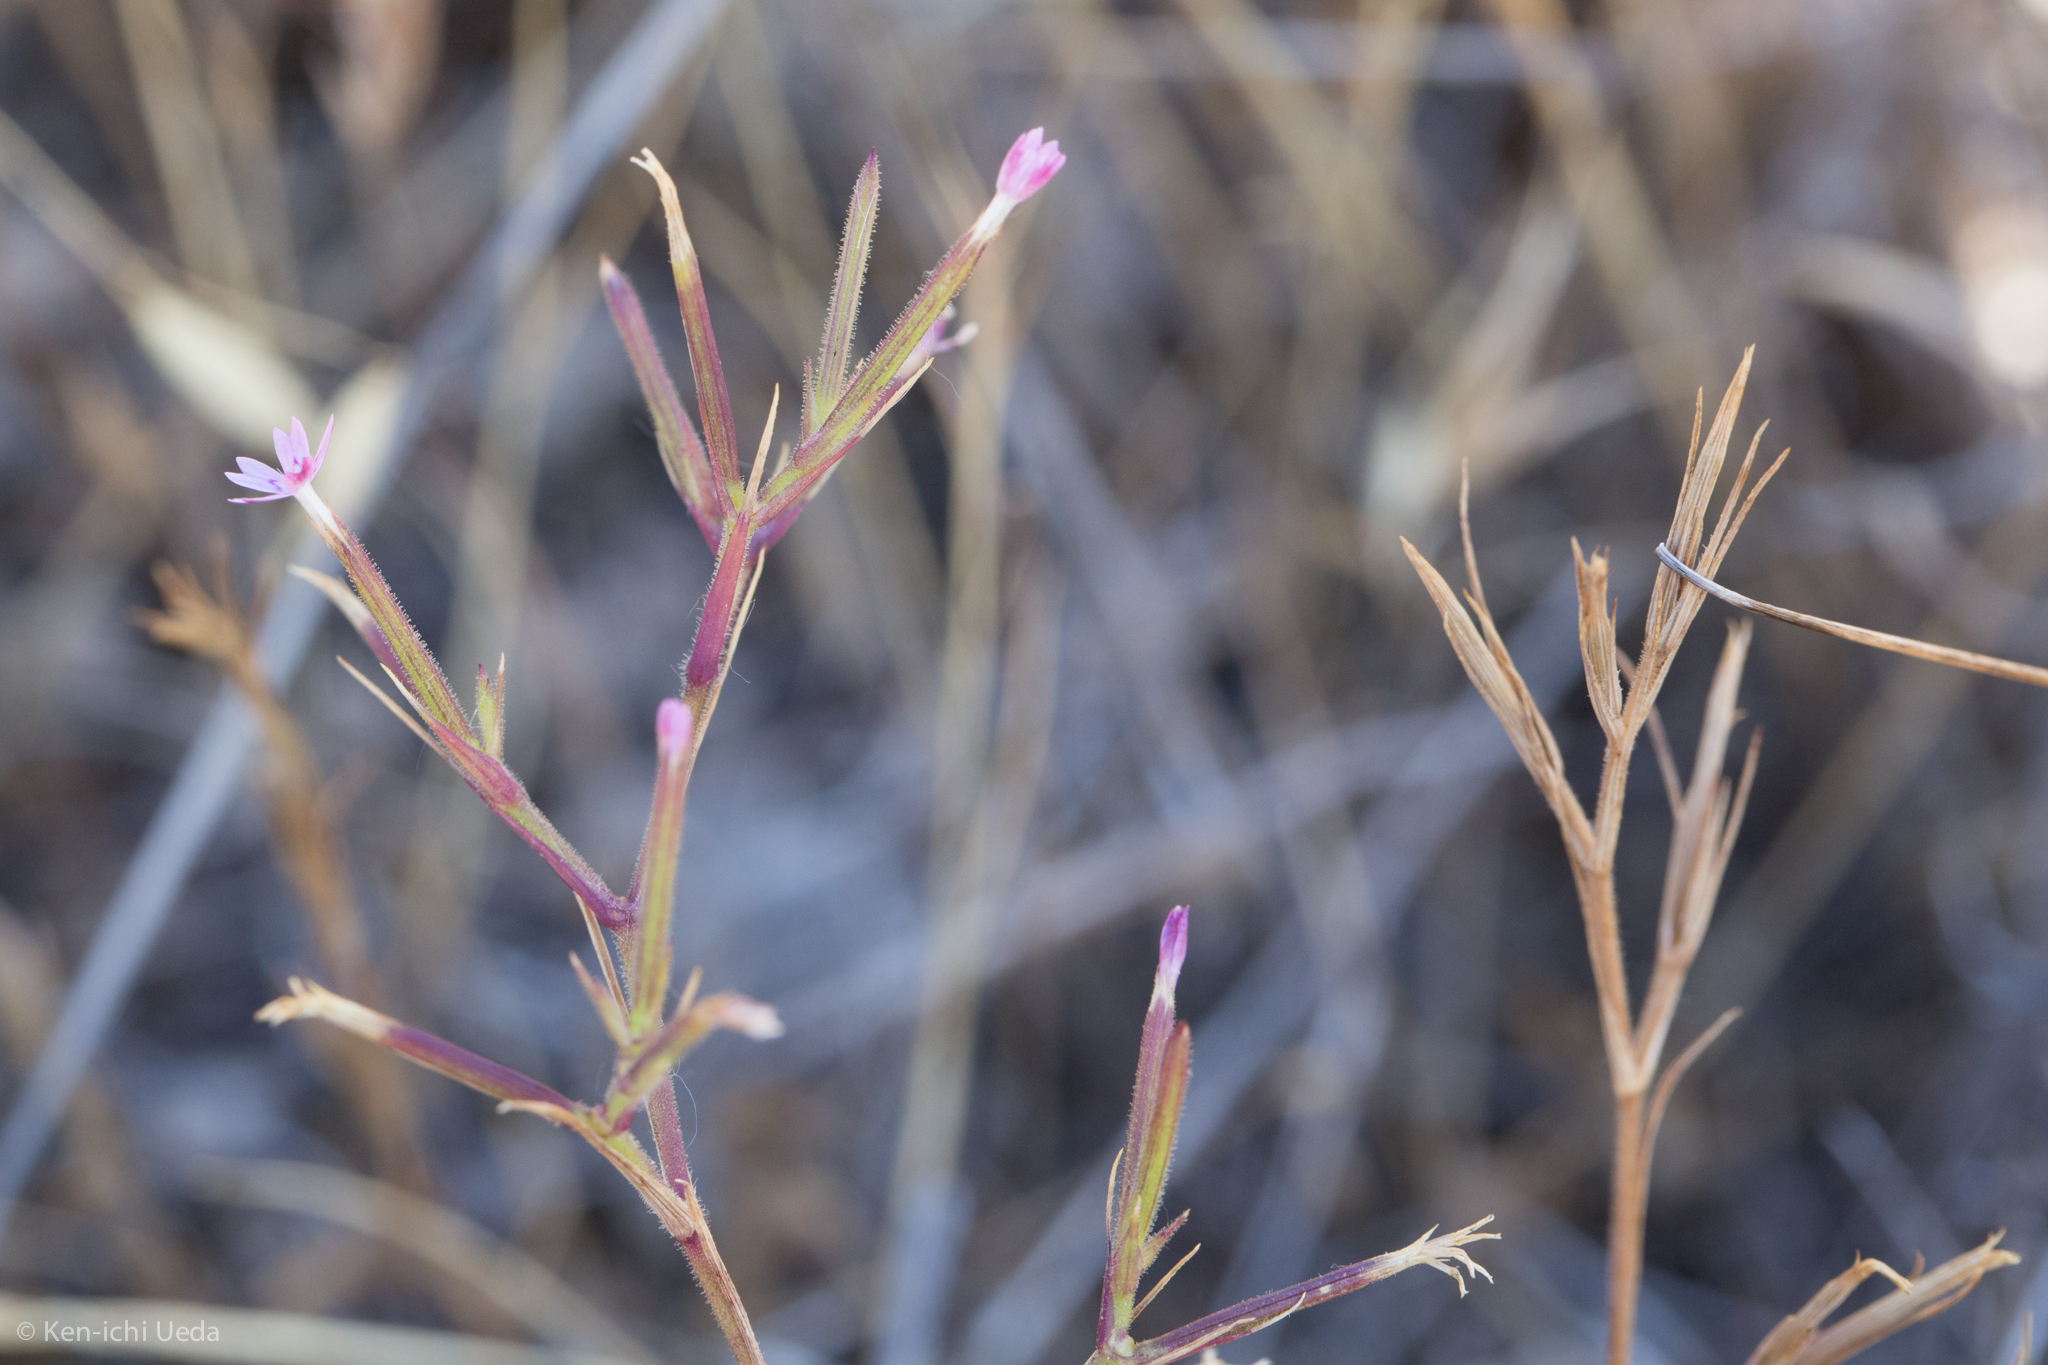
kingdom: Plantae
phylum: Tracheophyta
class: Magnoliopsida
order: Caryophyllales
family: Caryophyllaceae
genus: Dianthus
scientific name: Dianthus nudiflorus
